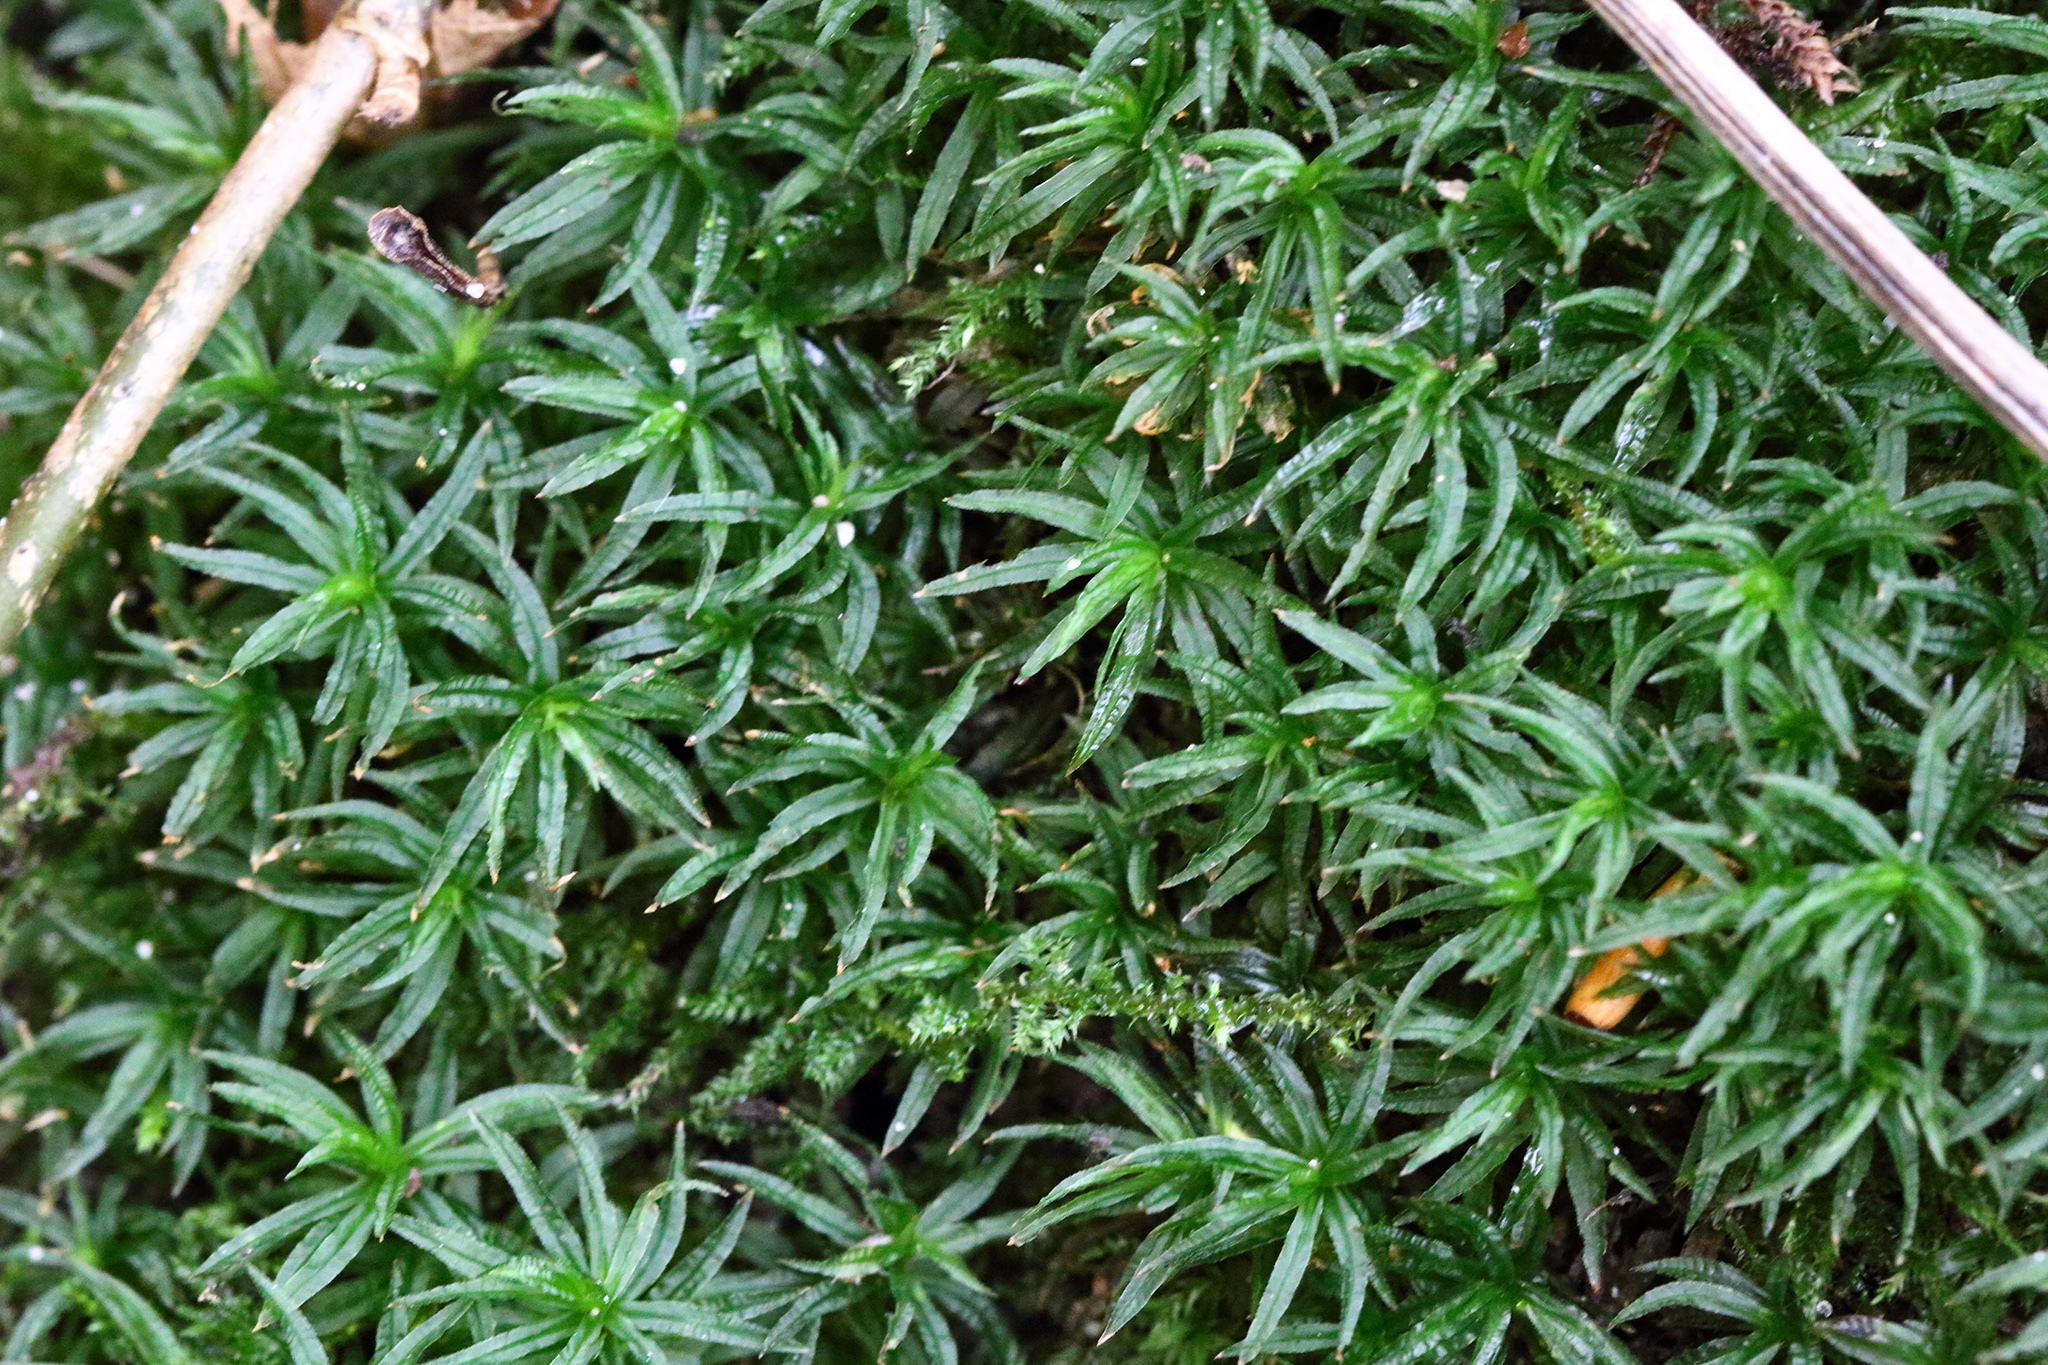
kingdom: Plantae
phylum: Bryophyta
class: Polytrichopsida
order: Polytrichales
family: Polytrichaceae
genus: Atrichum
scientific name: Atrichum undulatum
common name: Common smoothcap
